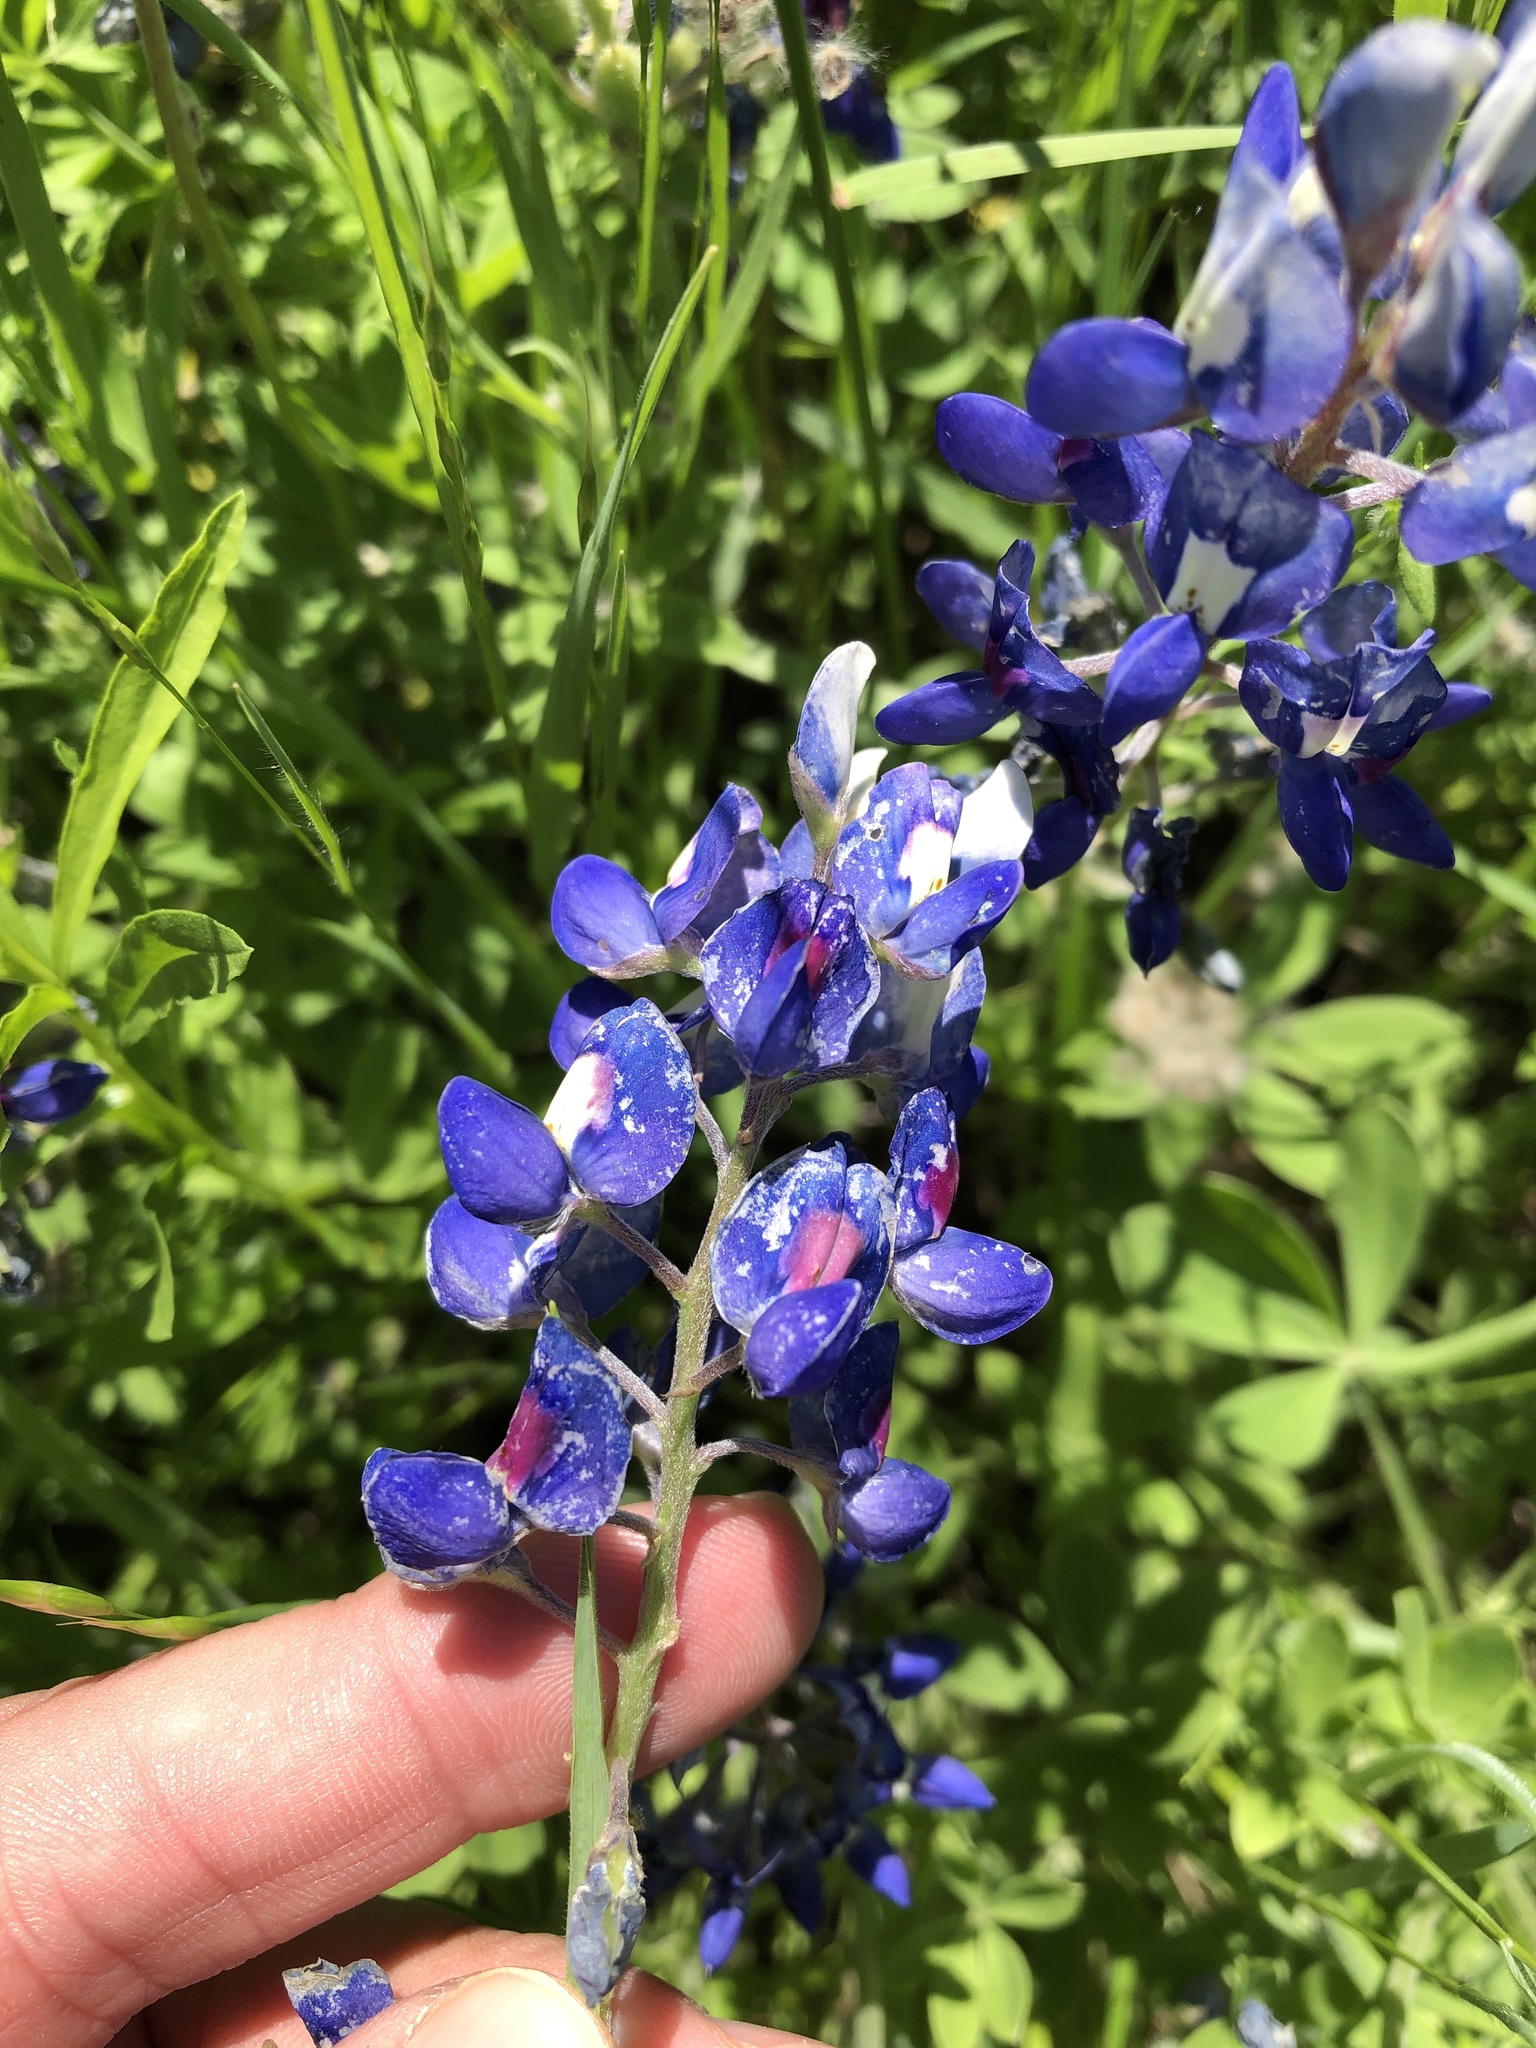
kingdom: Plantae
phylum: Tracheophyta
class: Magnoliopsida
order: Fabales
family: Fabaceae
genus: Lupinus
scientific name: Lupinus texensis
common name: Texas bluebonnet
